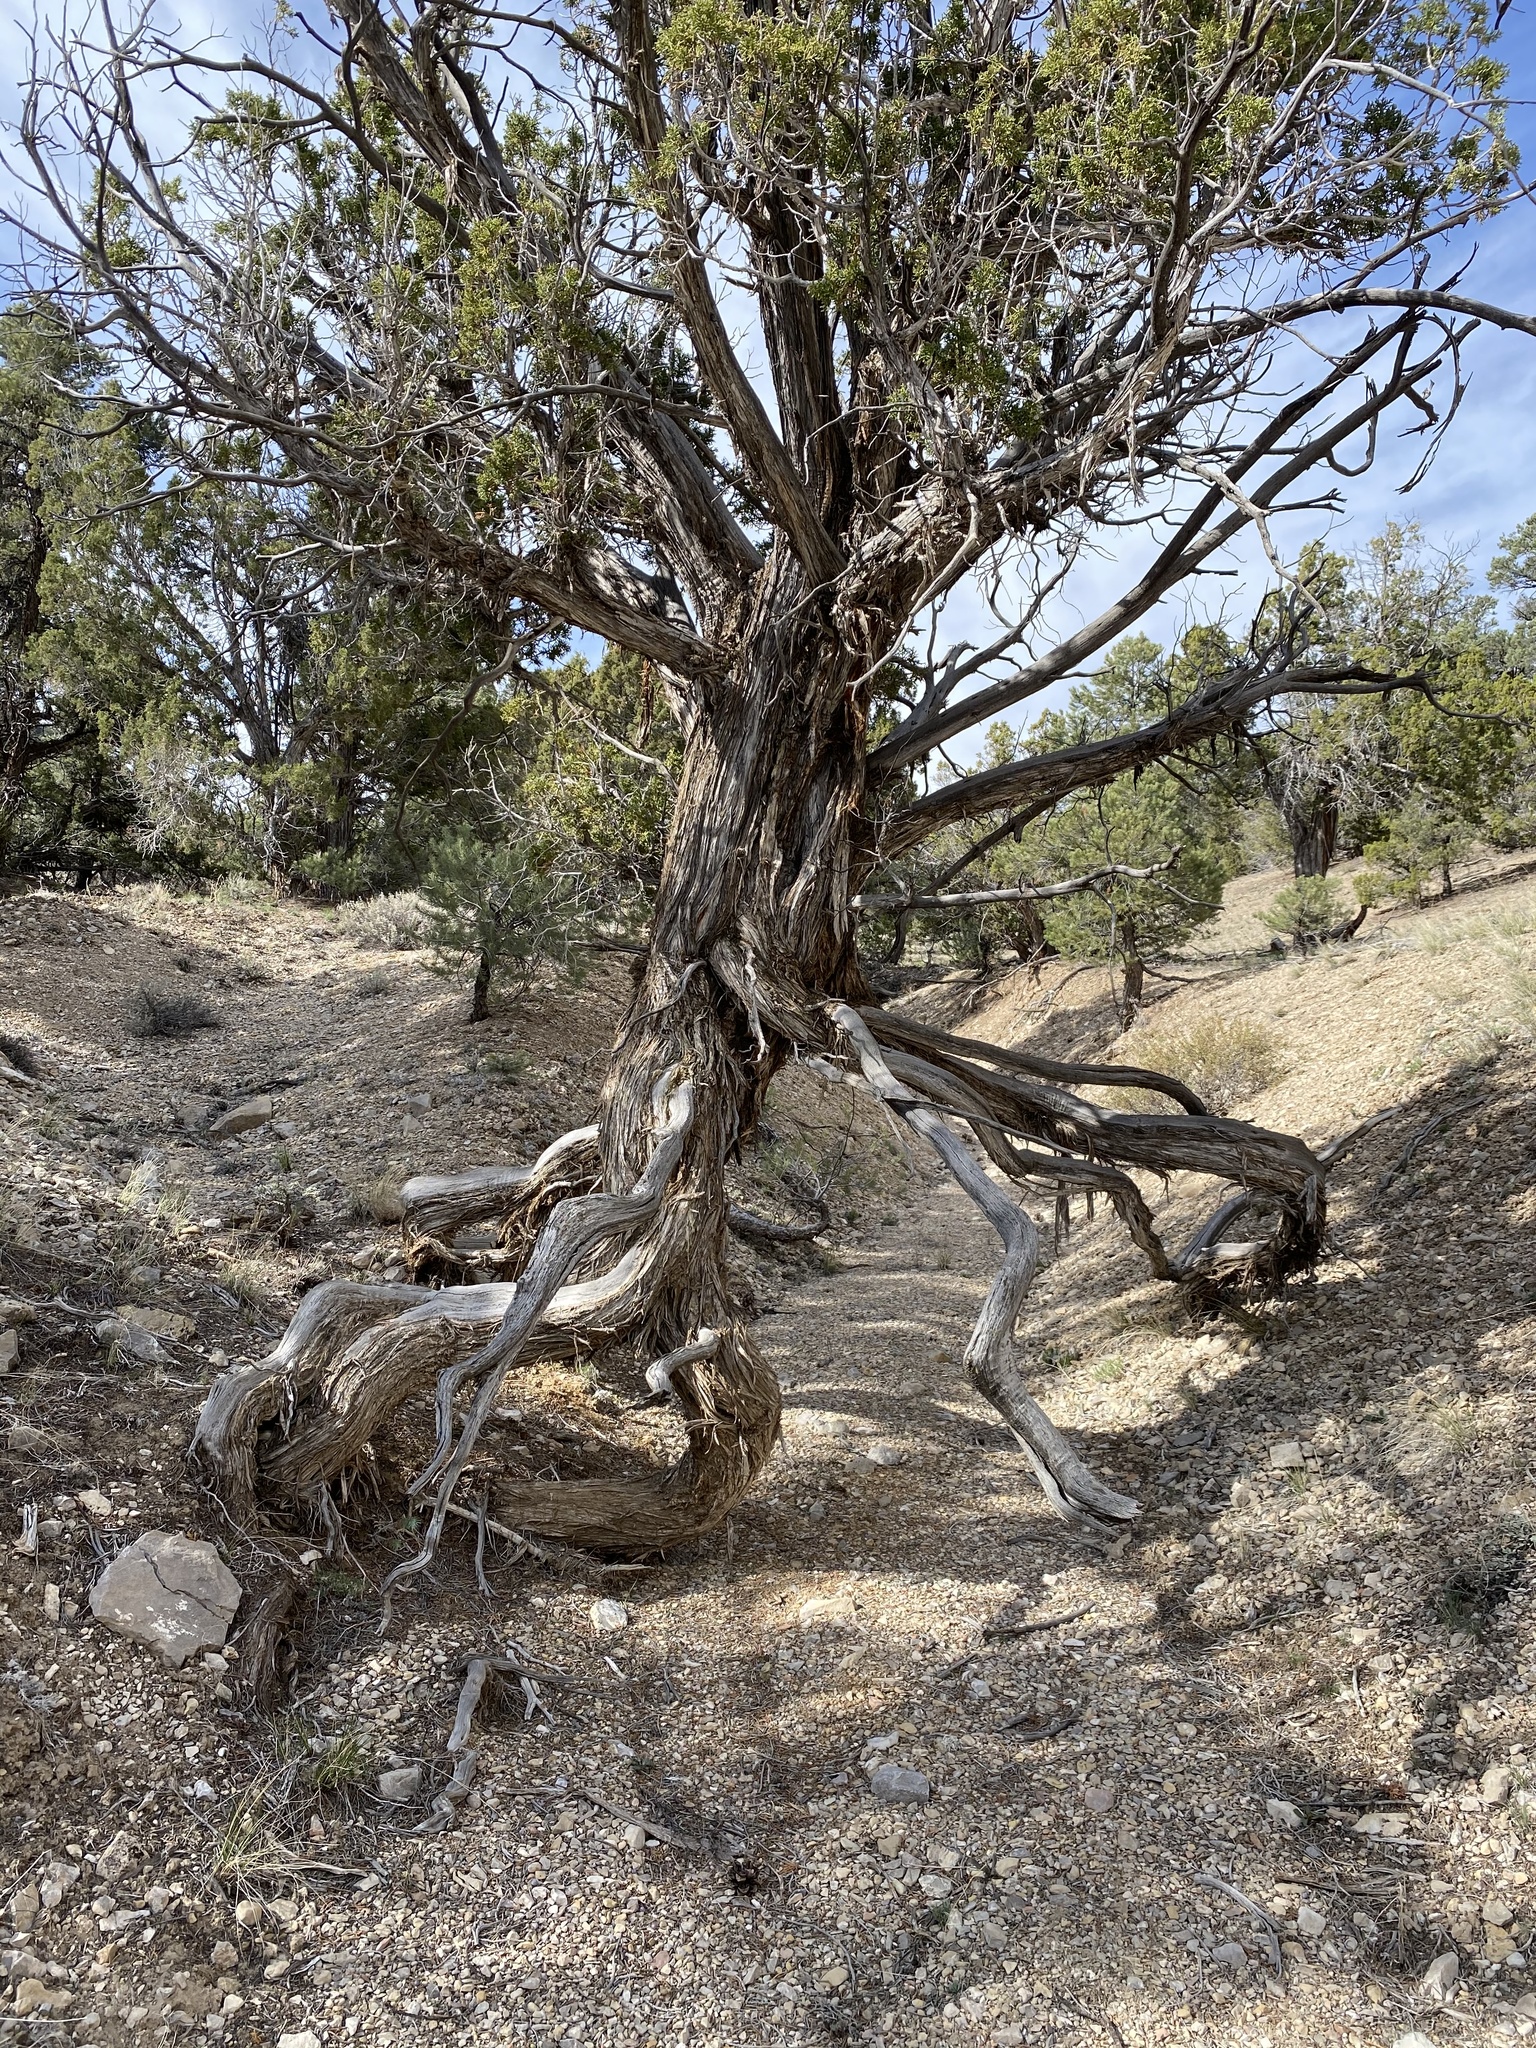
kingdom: Plantae
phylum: Tracheophyta
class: Pinopsida
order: Pinales
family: Cupressaceae
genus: Juniperus
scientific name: Juniperus osteosperma
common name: Utah juniper
